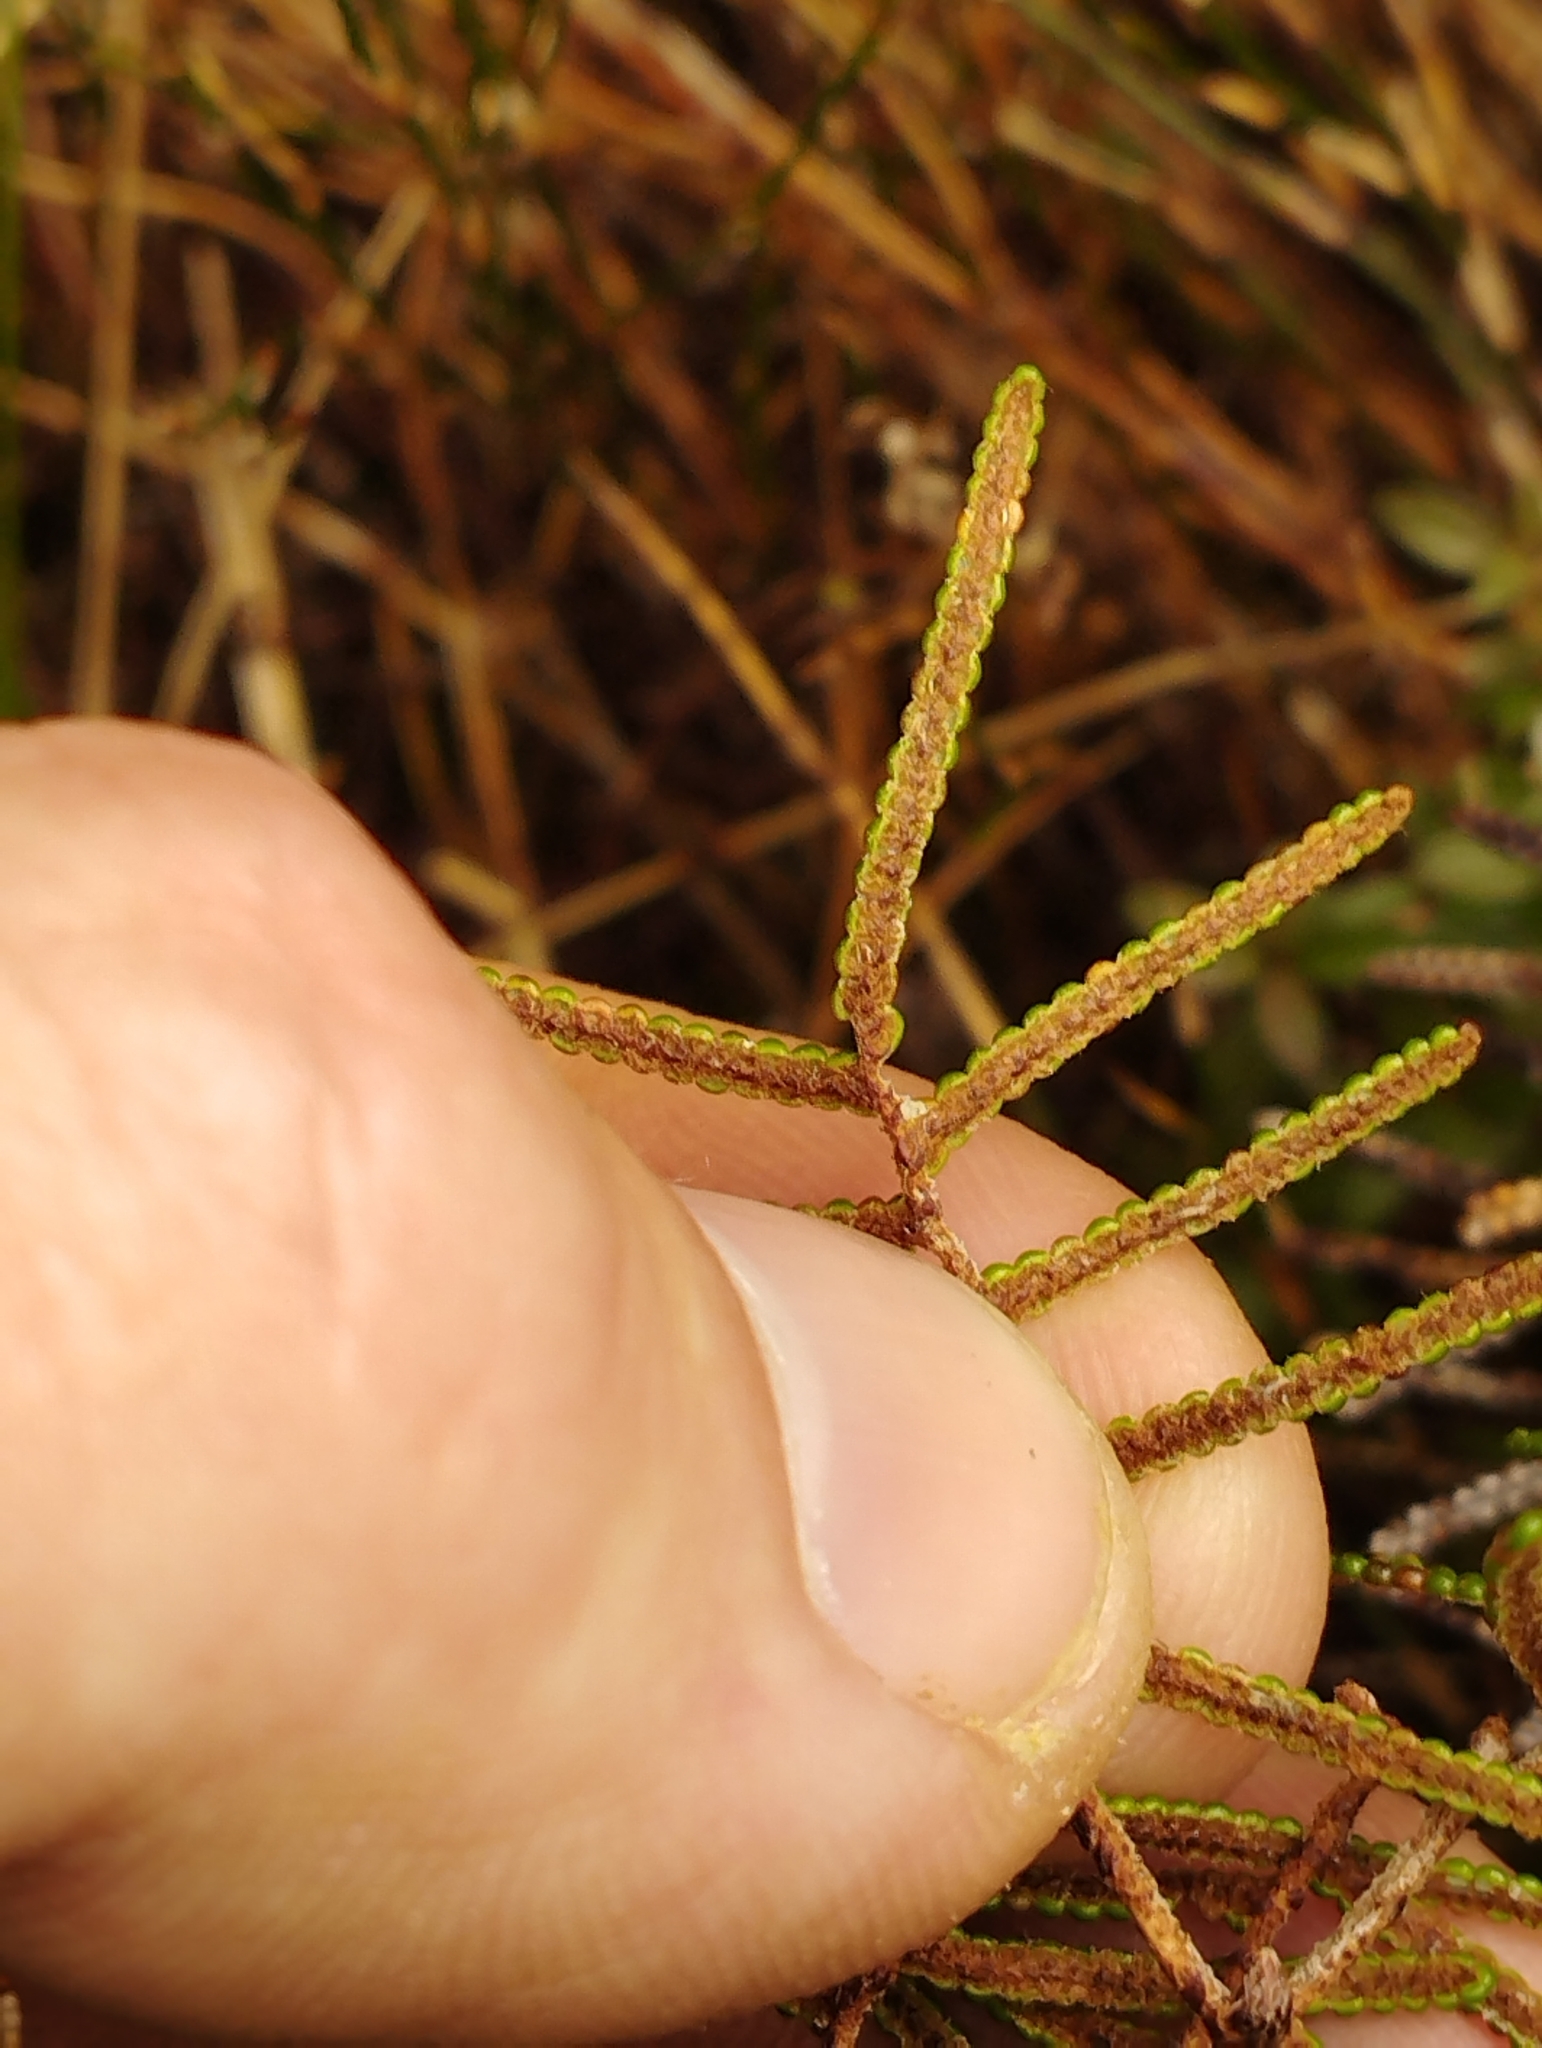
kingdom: Plantae
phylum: Tracheophyta
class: Polypodiopsida
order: Gleicheniales
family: Gleicheniaceae
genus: Gleichenia
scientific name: Gleichenia dicarpa
